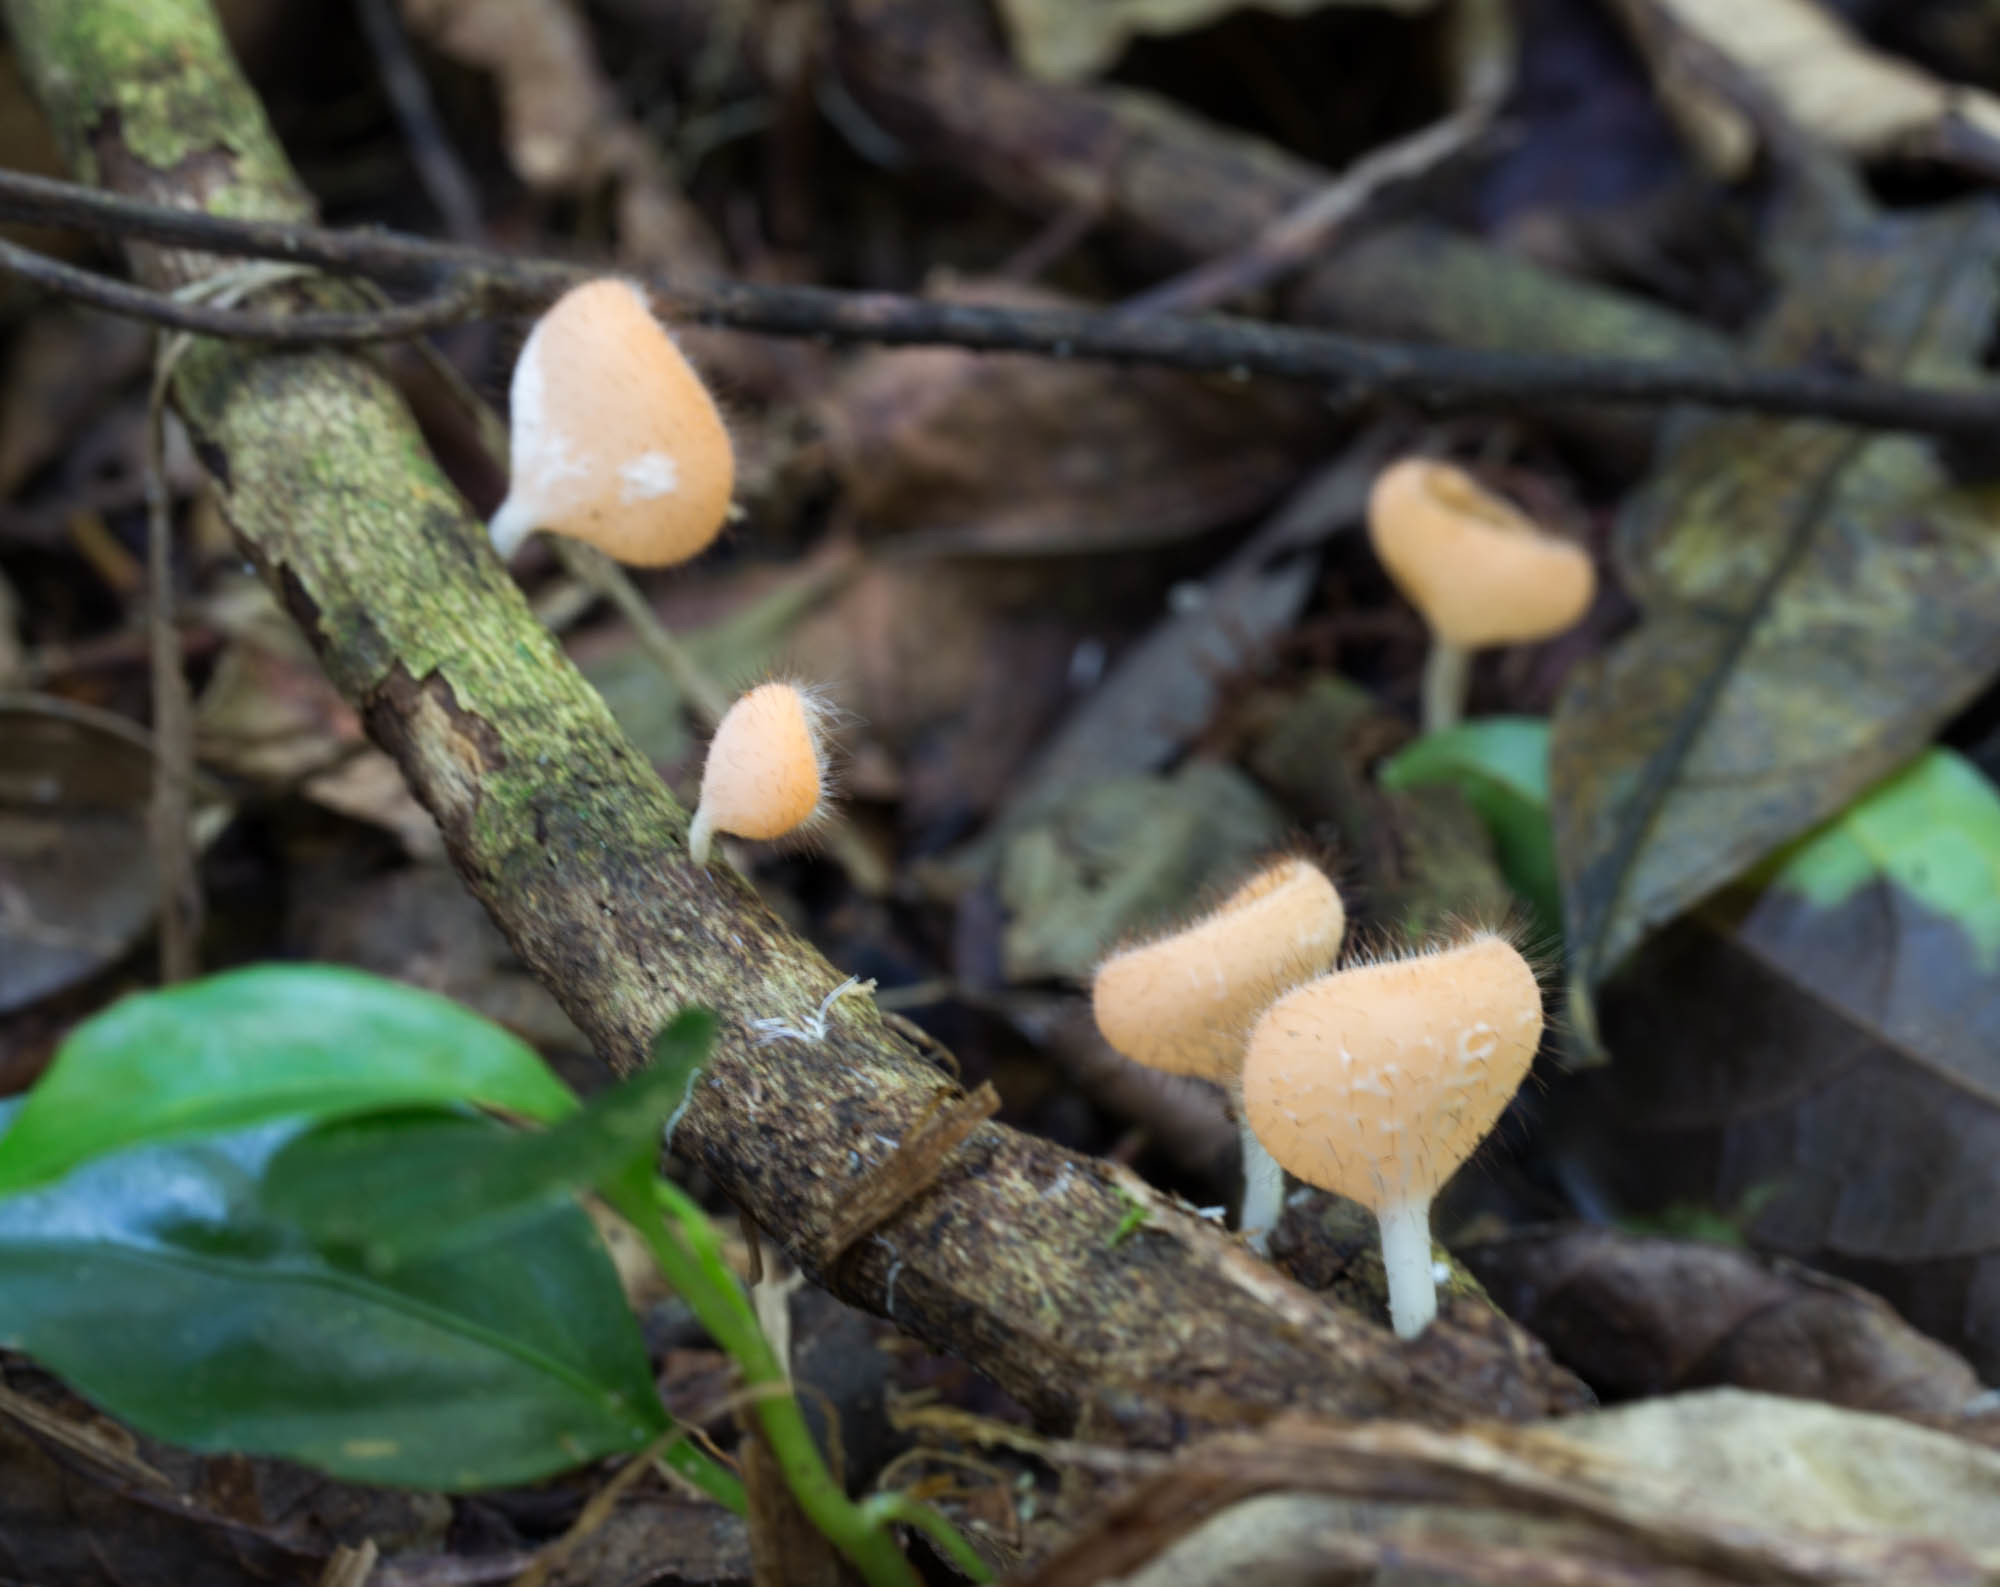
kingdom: Fungi
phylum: Ascomycota
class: Pezizomycetes
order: Pezizales
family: Sarcoscyphaceae
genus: Cookeina
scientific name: Cookeina tricholoma
